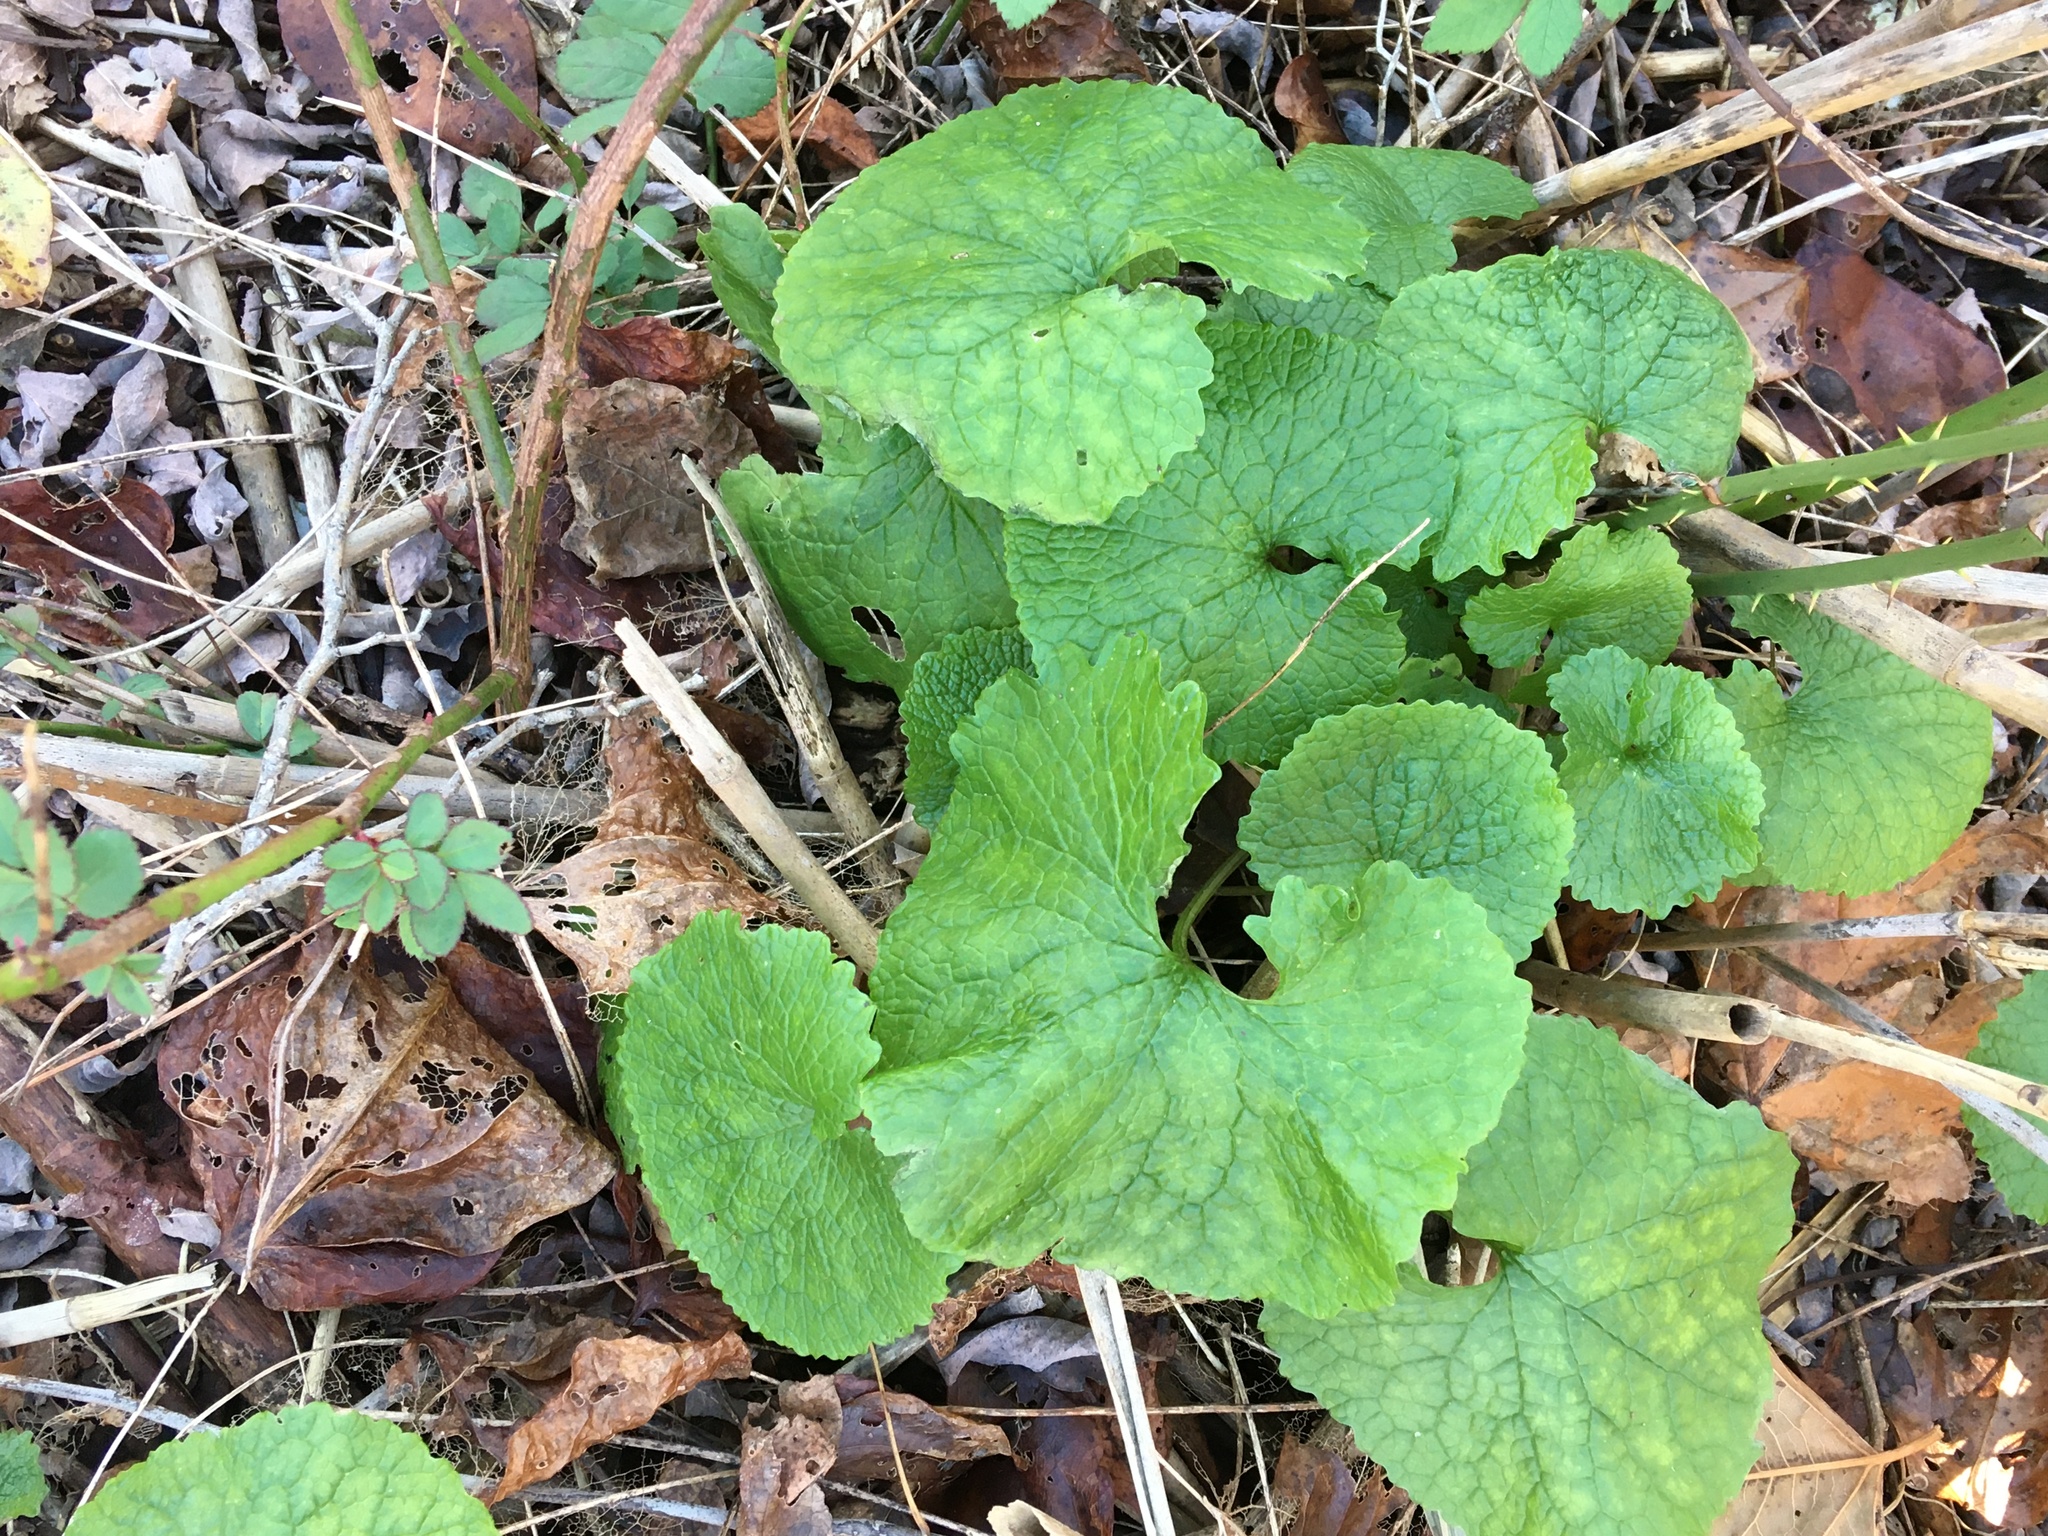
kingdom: Plantae
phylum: Tracheophyta
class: Magnoliopsida
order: Brassicales
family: Brassicaceae
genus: Alliaria
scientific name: Alliaria petiolata
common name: Garlic mustard
